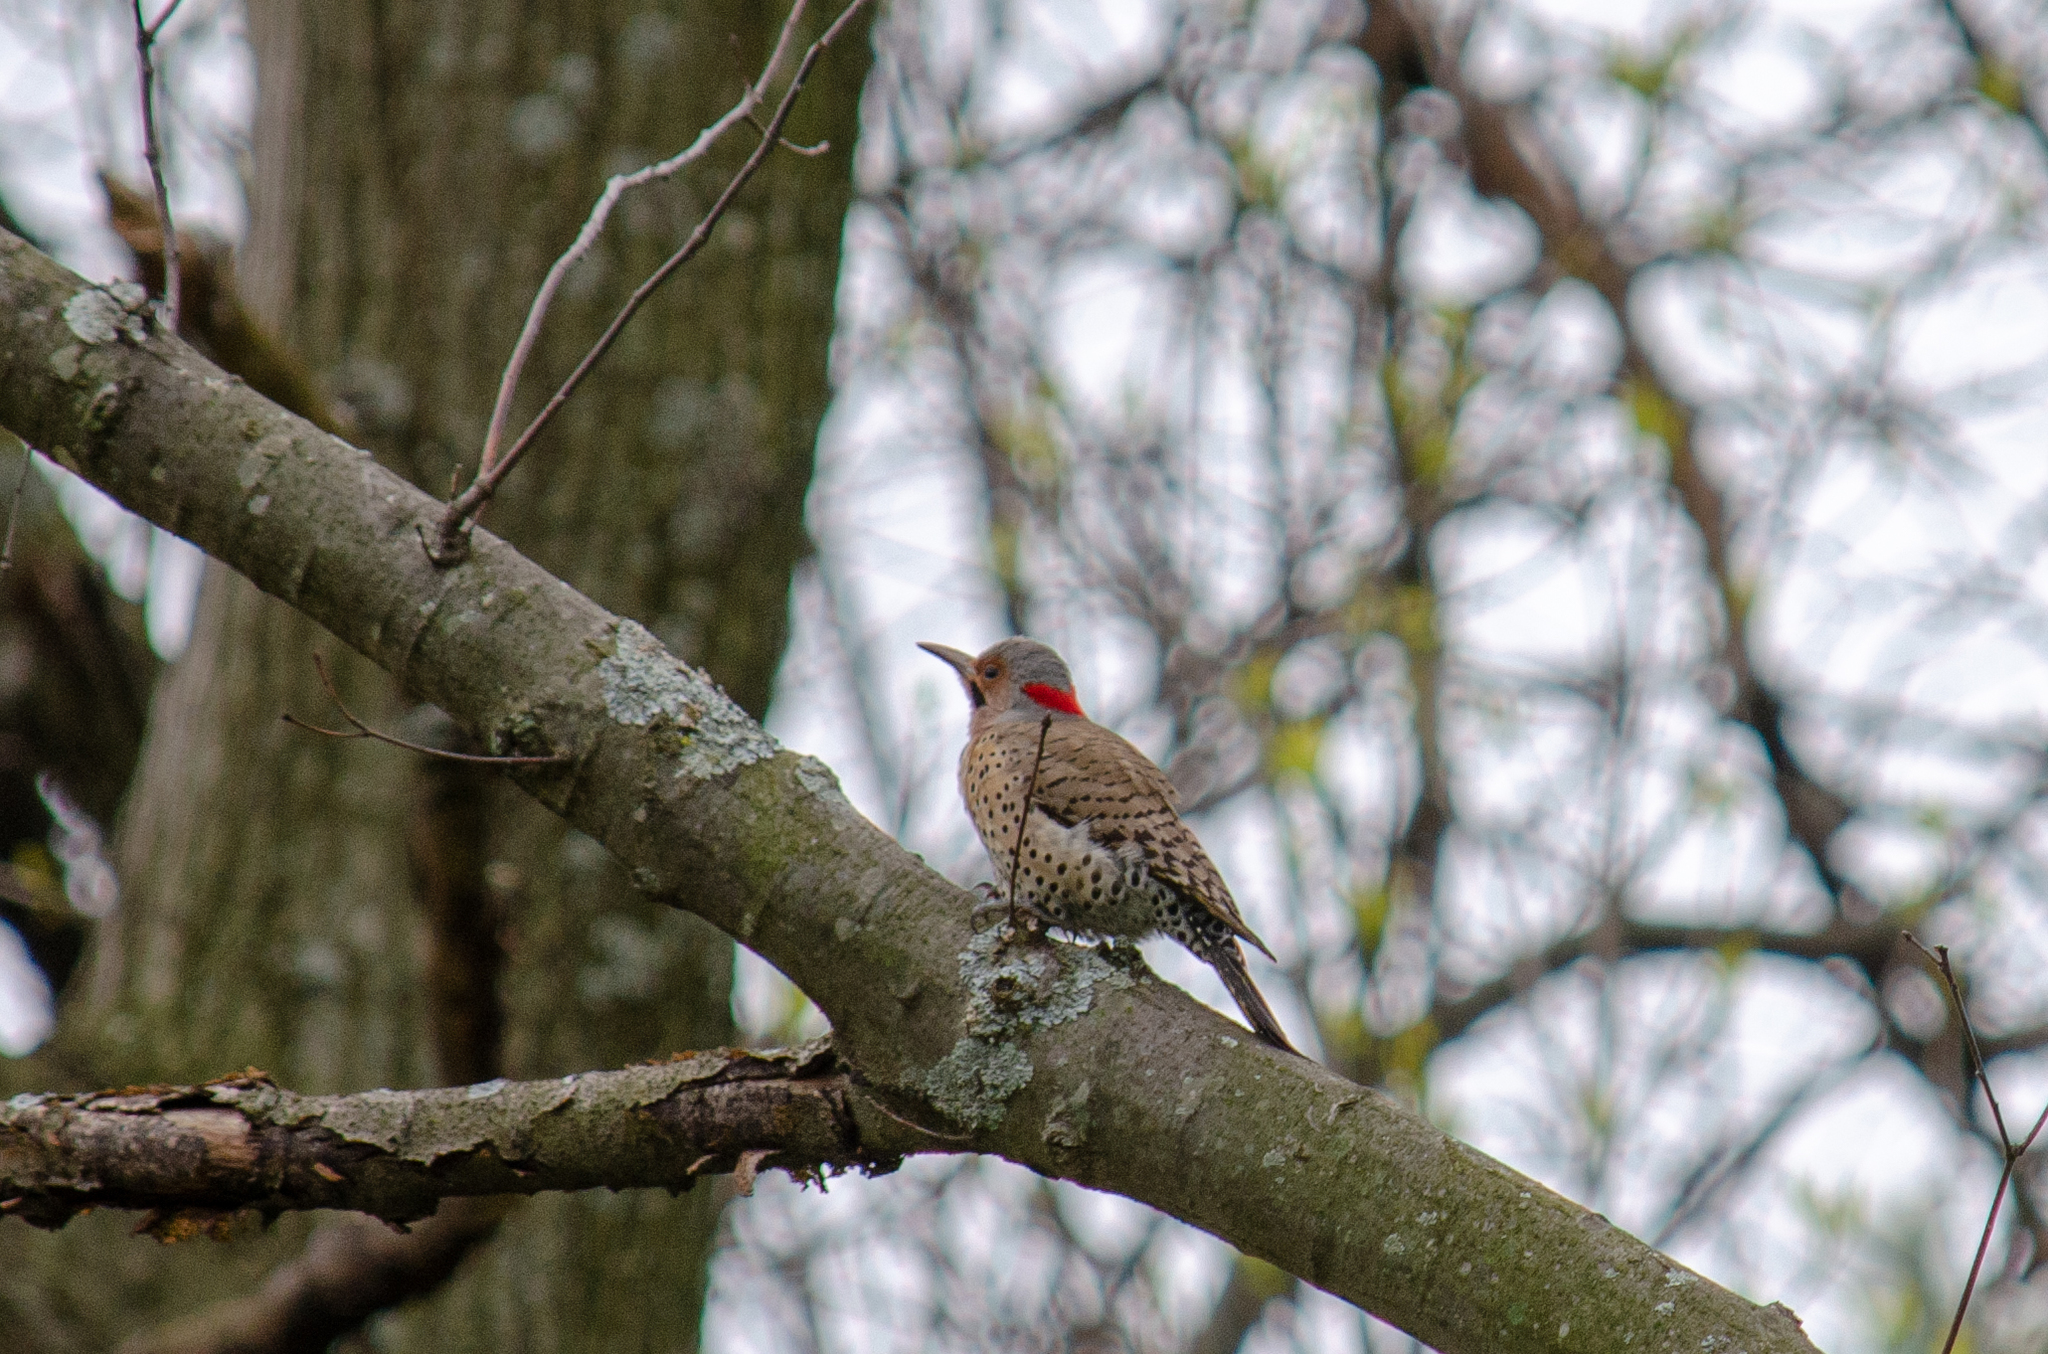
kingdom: Animalia
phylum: Chordata
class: Aves
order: Piciformes
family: Picidae
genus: Colaptes
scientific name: Colaptes auratus
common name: Northern flicker
